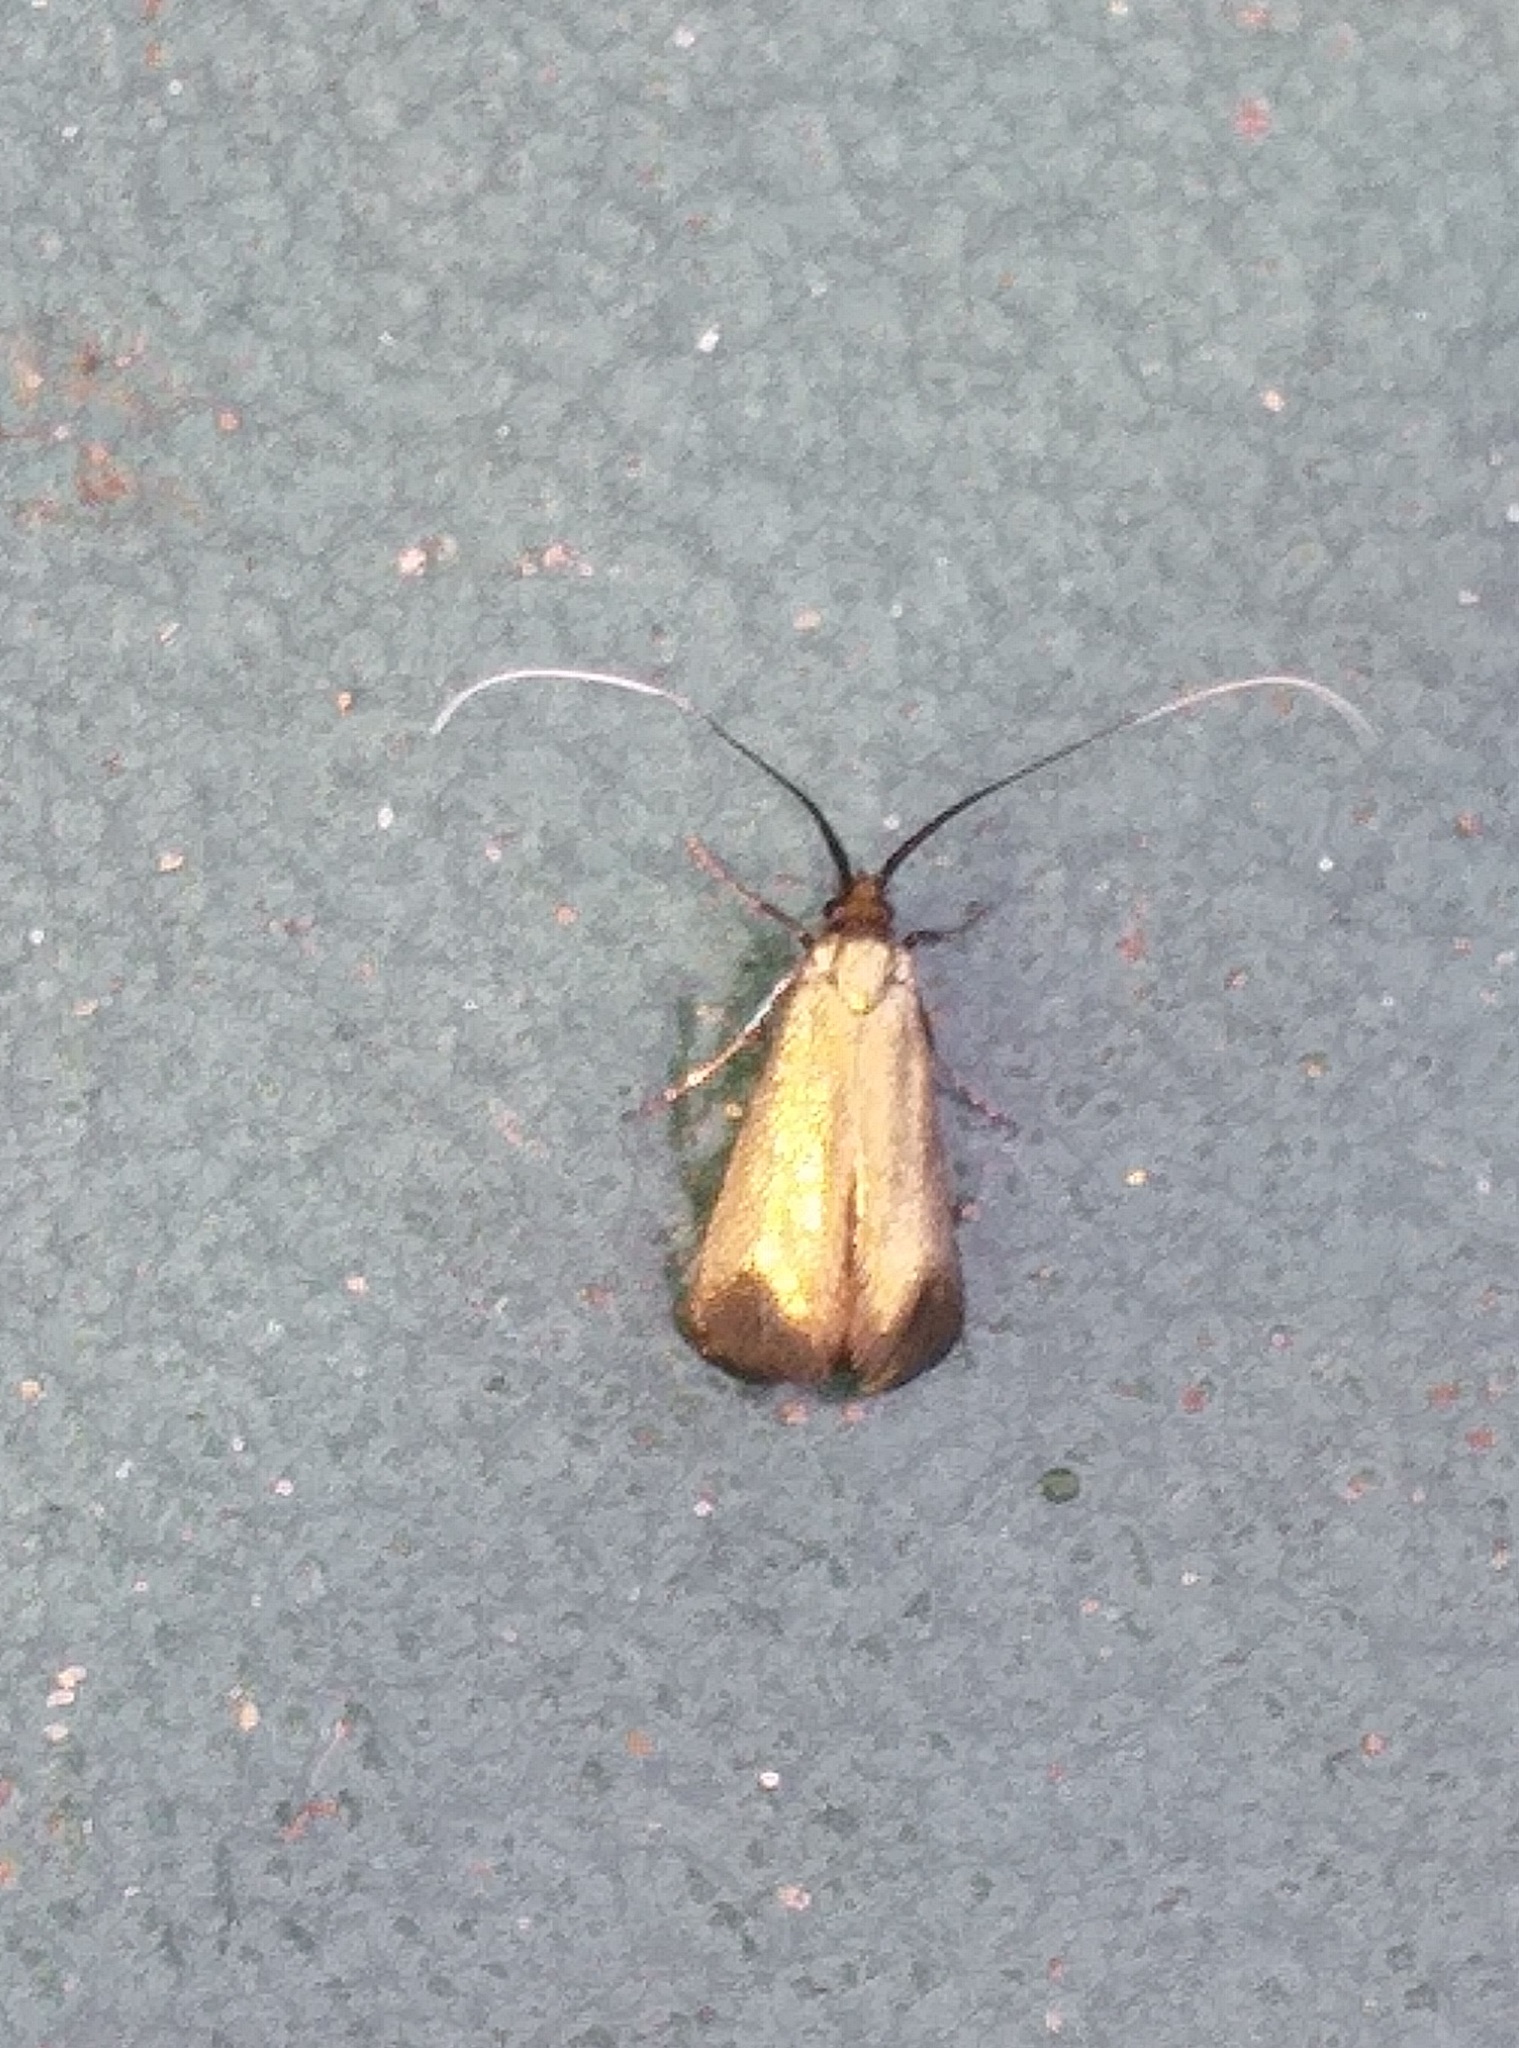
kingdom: Animalia
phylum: Arthropoda
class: Insecta
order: Lepidoptera
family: Adelidae
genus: Adela
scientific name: Adela viridella
